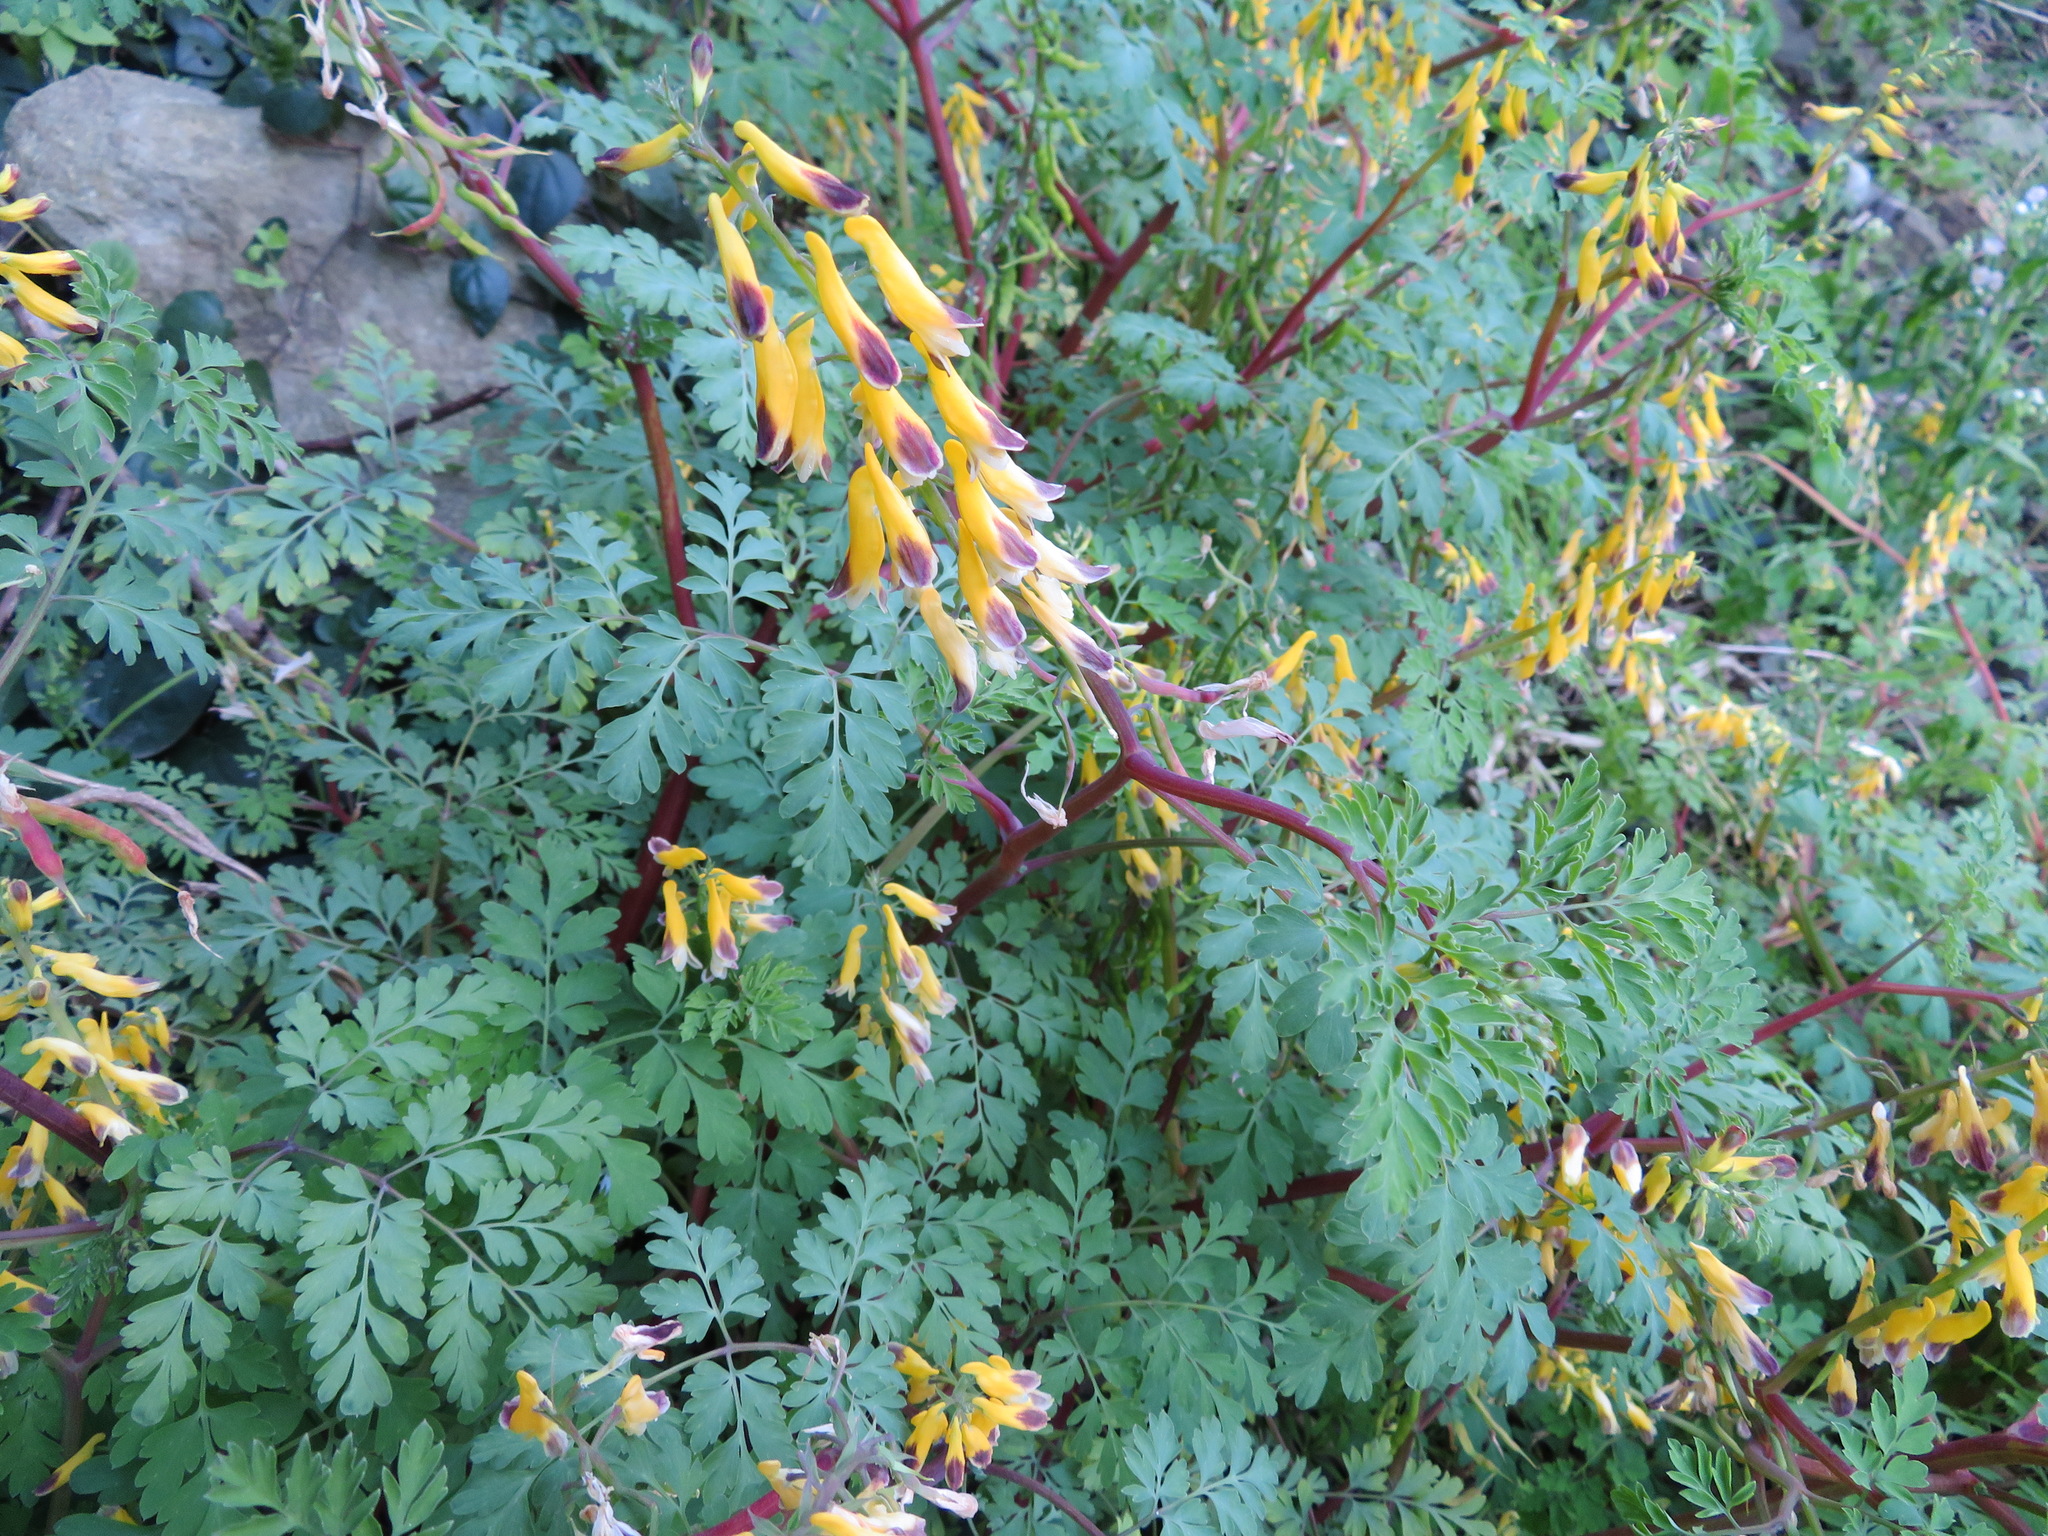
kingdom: Plantae
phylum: Tracheophyta
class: Magnoliopsida
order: Ranunculales
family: Papaveraceae
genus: Corydalis
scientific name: Corydalis platycarpa
